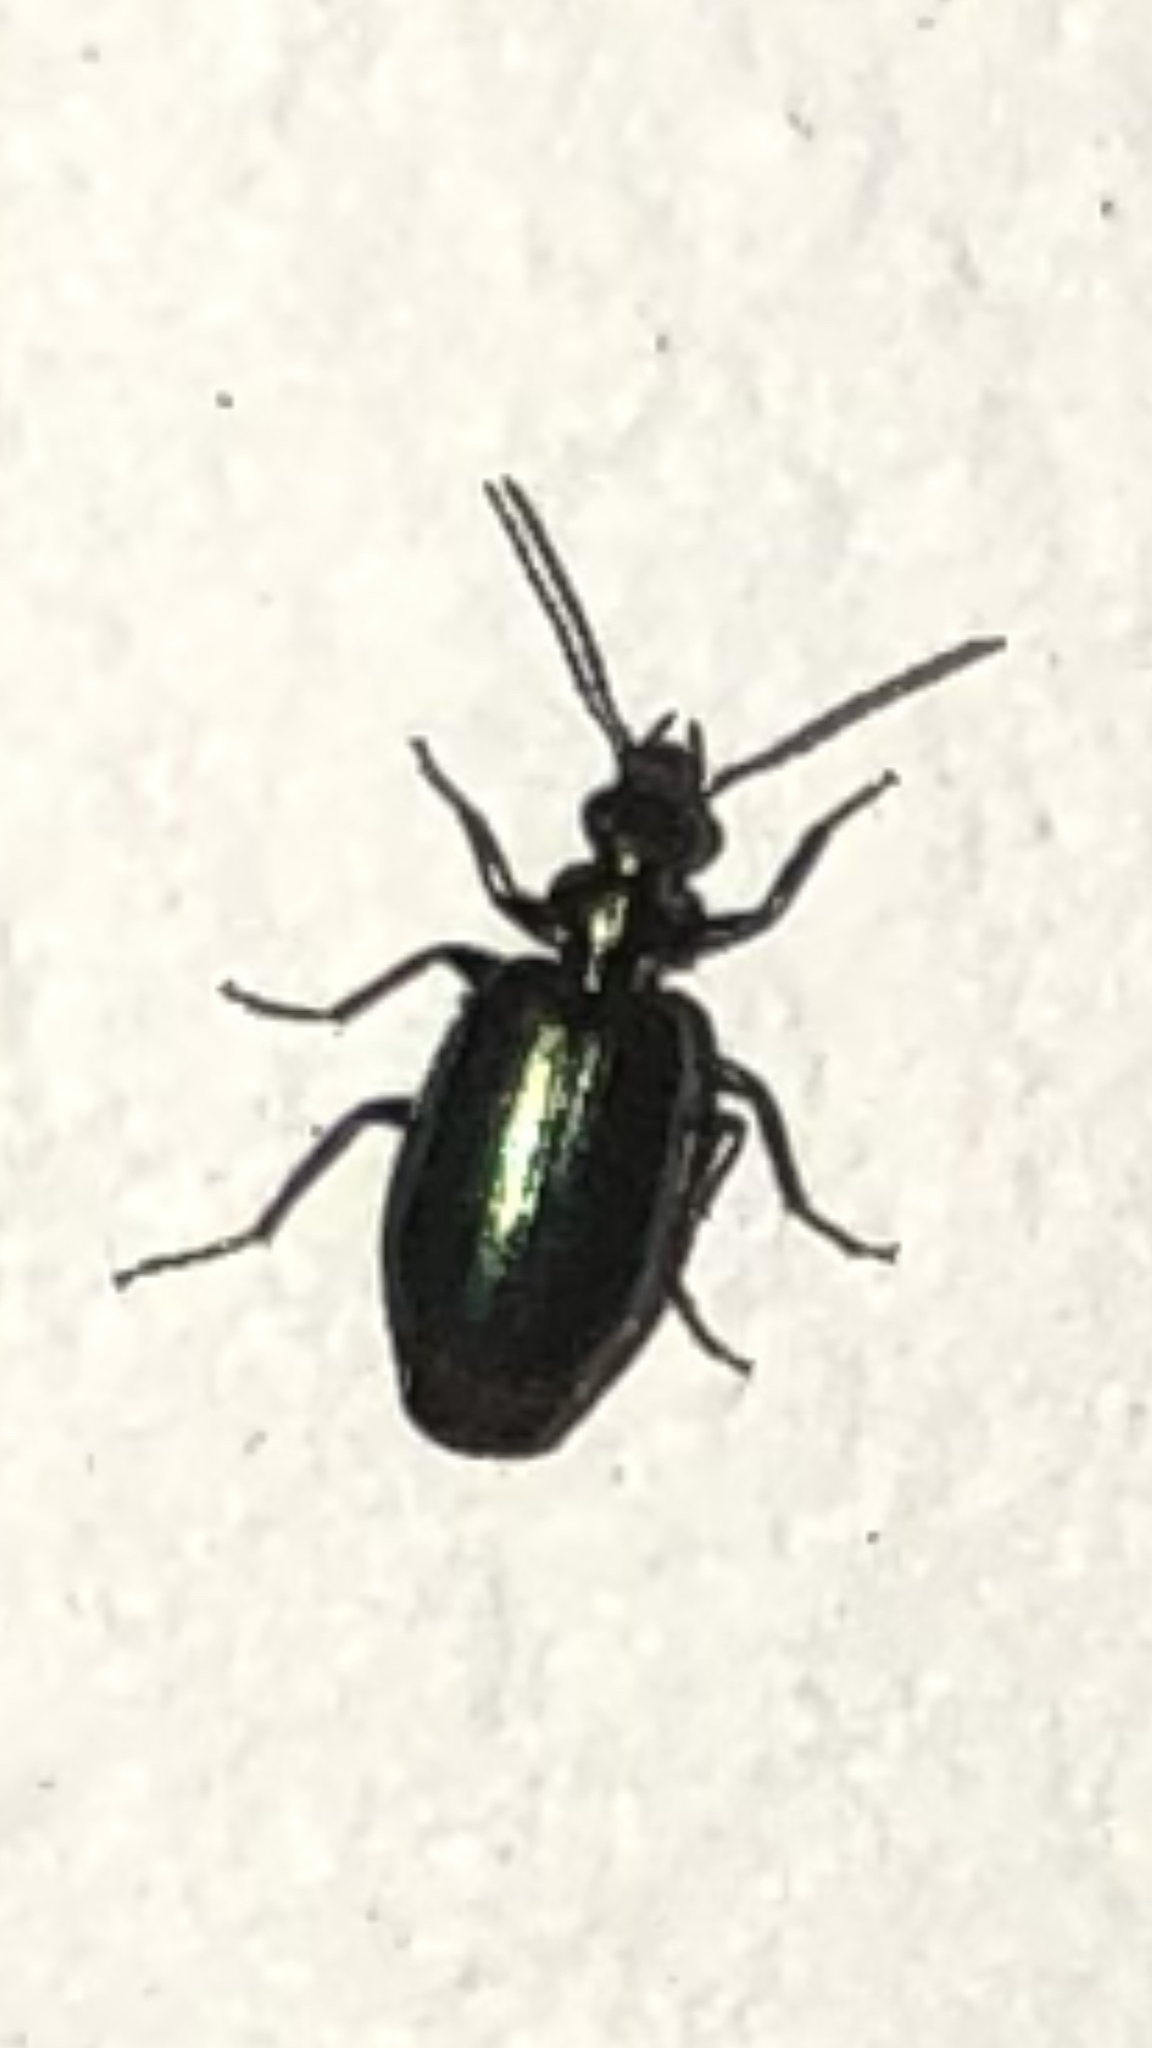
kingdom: Animalia
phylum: Arthropoda
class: Insecta
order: Coleoptera
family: Carabidae
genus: Lebia
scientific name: Lebia viridis
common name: Flower lebia beetle
